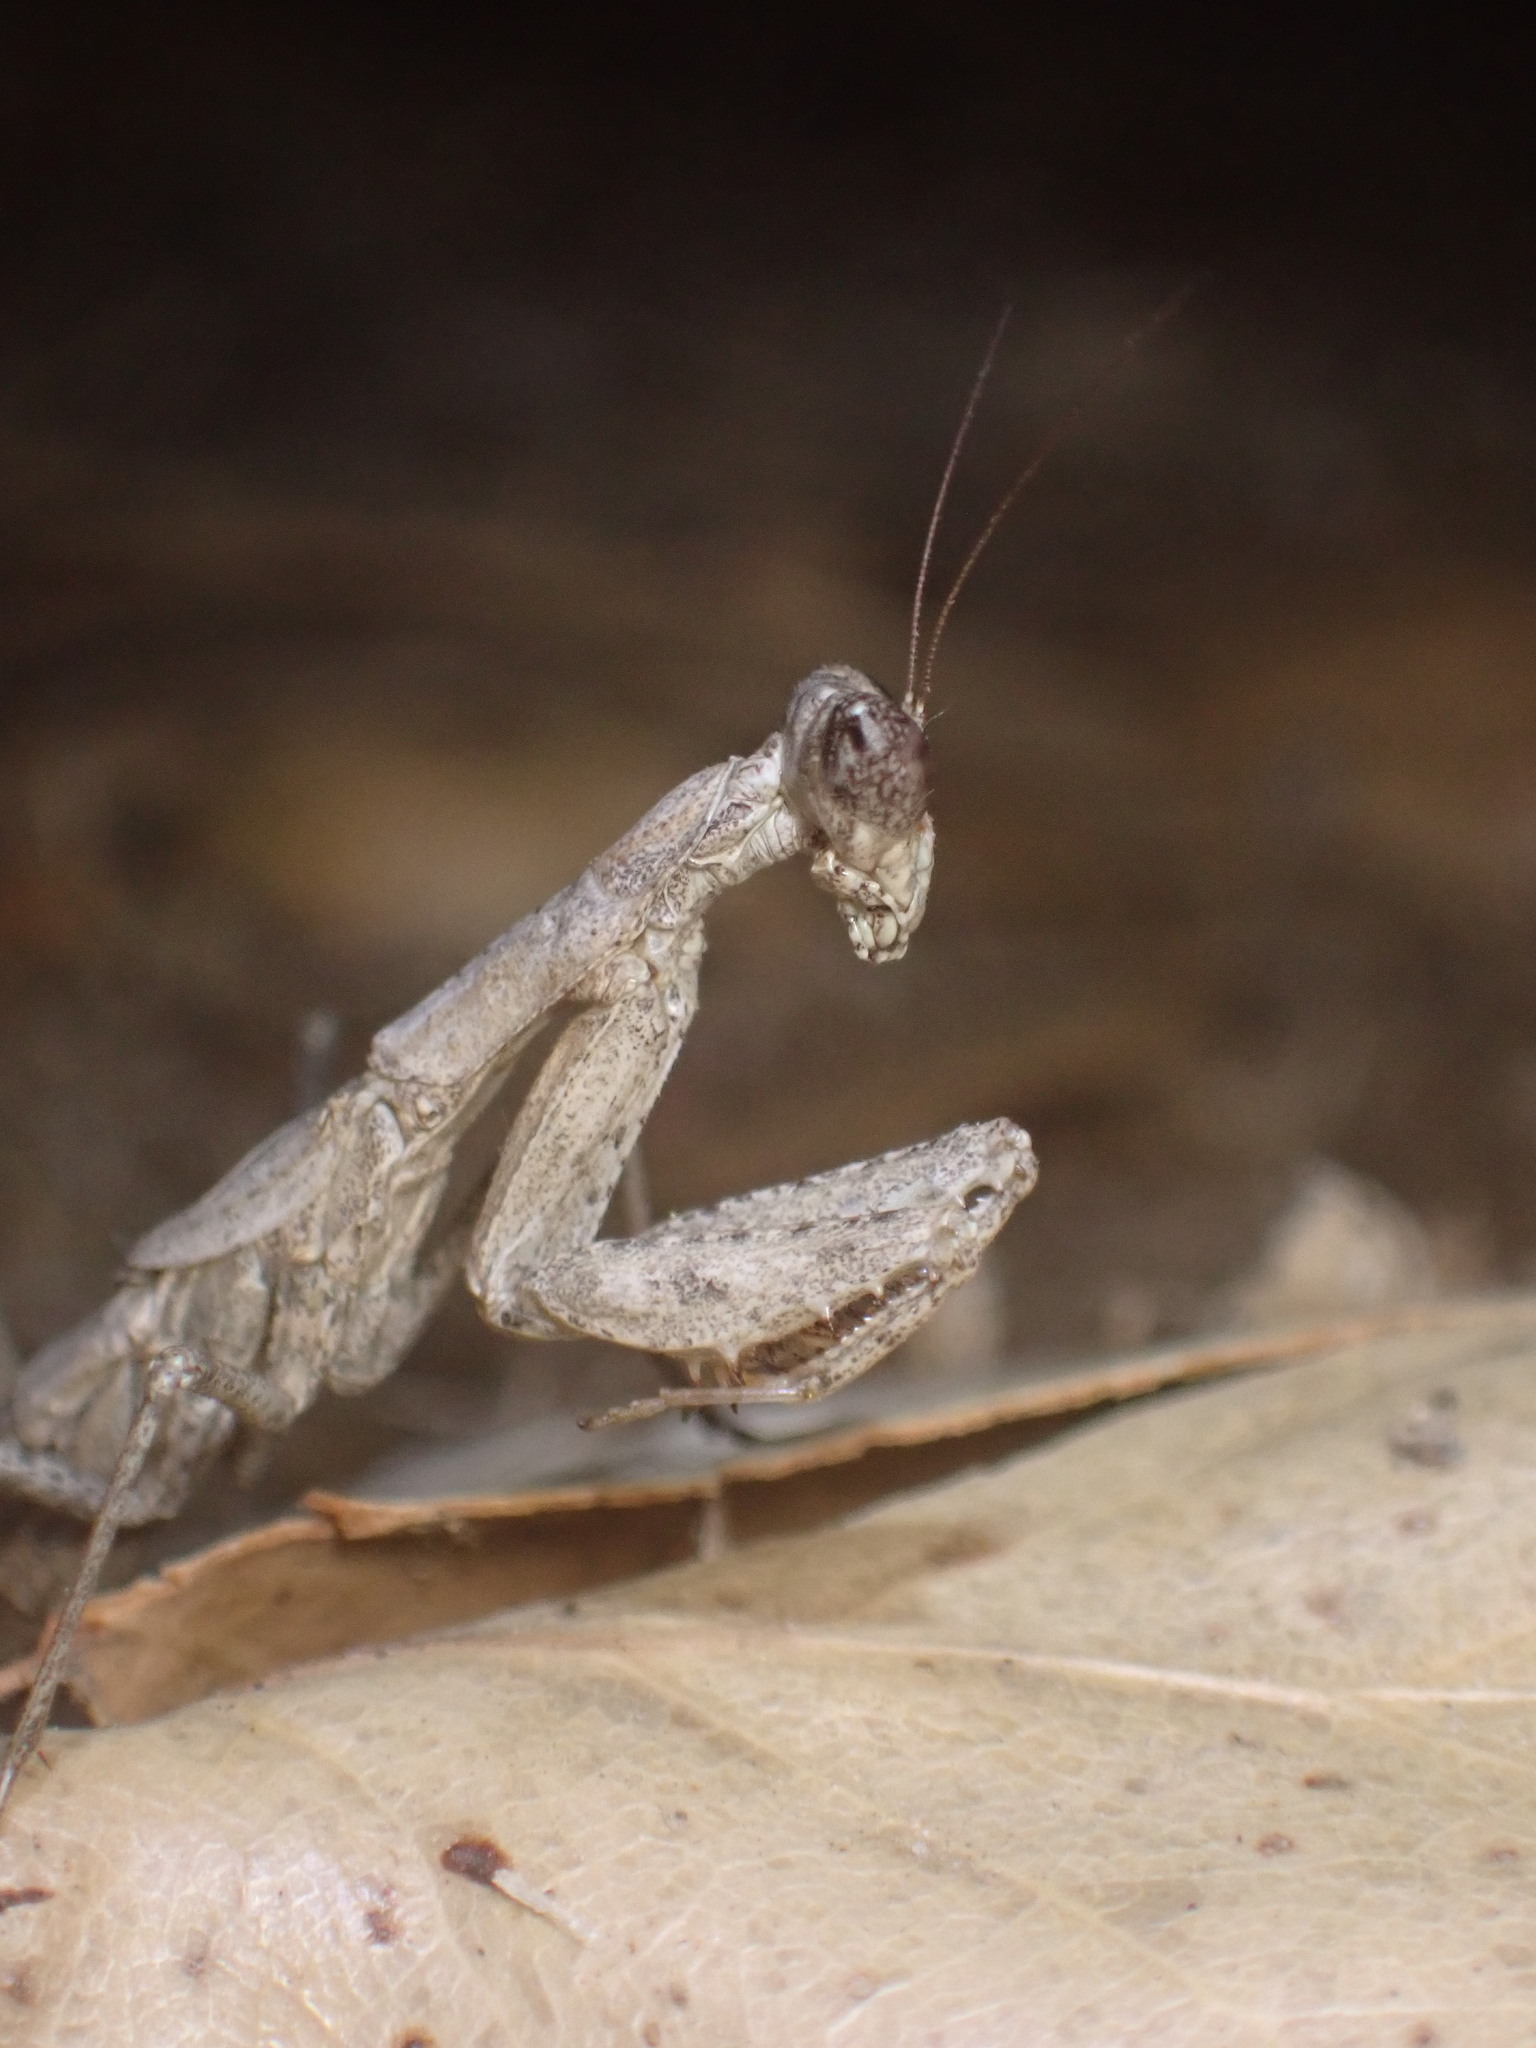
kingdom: Animalia
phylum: Arthropoda
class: Insecta
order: Mantodea
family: Amelidae
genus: Litaneutria
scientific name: Litaneutria pacifica
